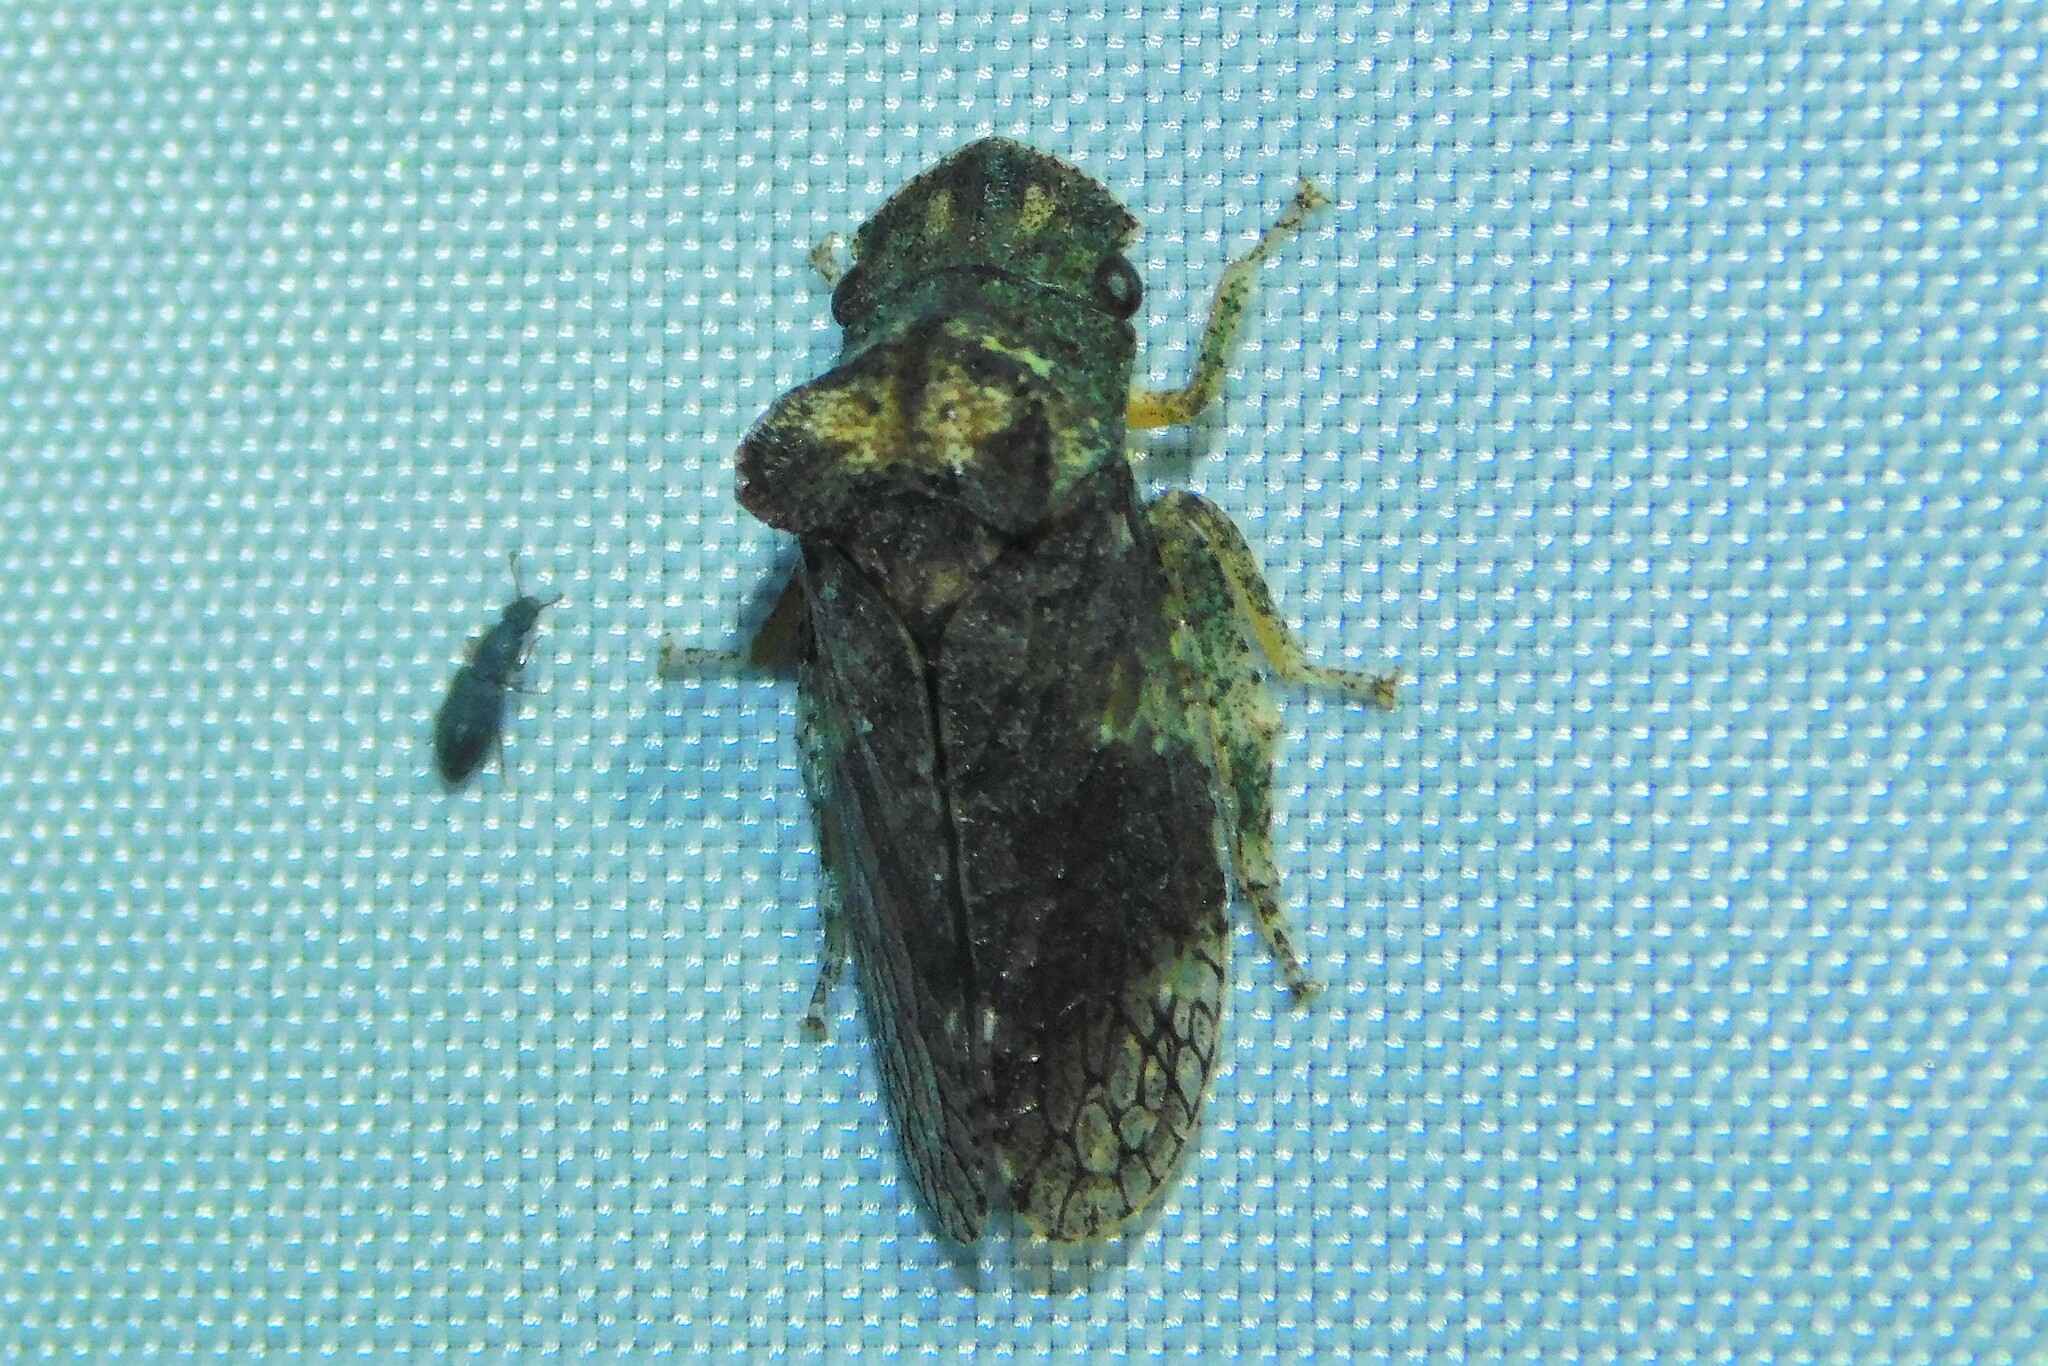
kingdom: Animalia
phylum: Arthropoda
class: Insecta
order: Hemiptera
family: Cicadellidae
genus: Ledra
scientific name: Ledra aurita
